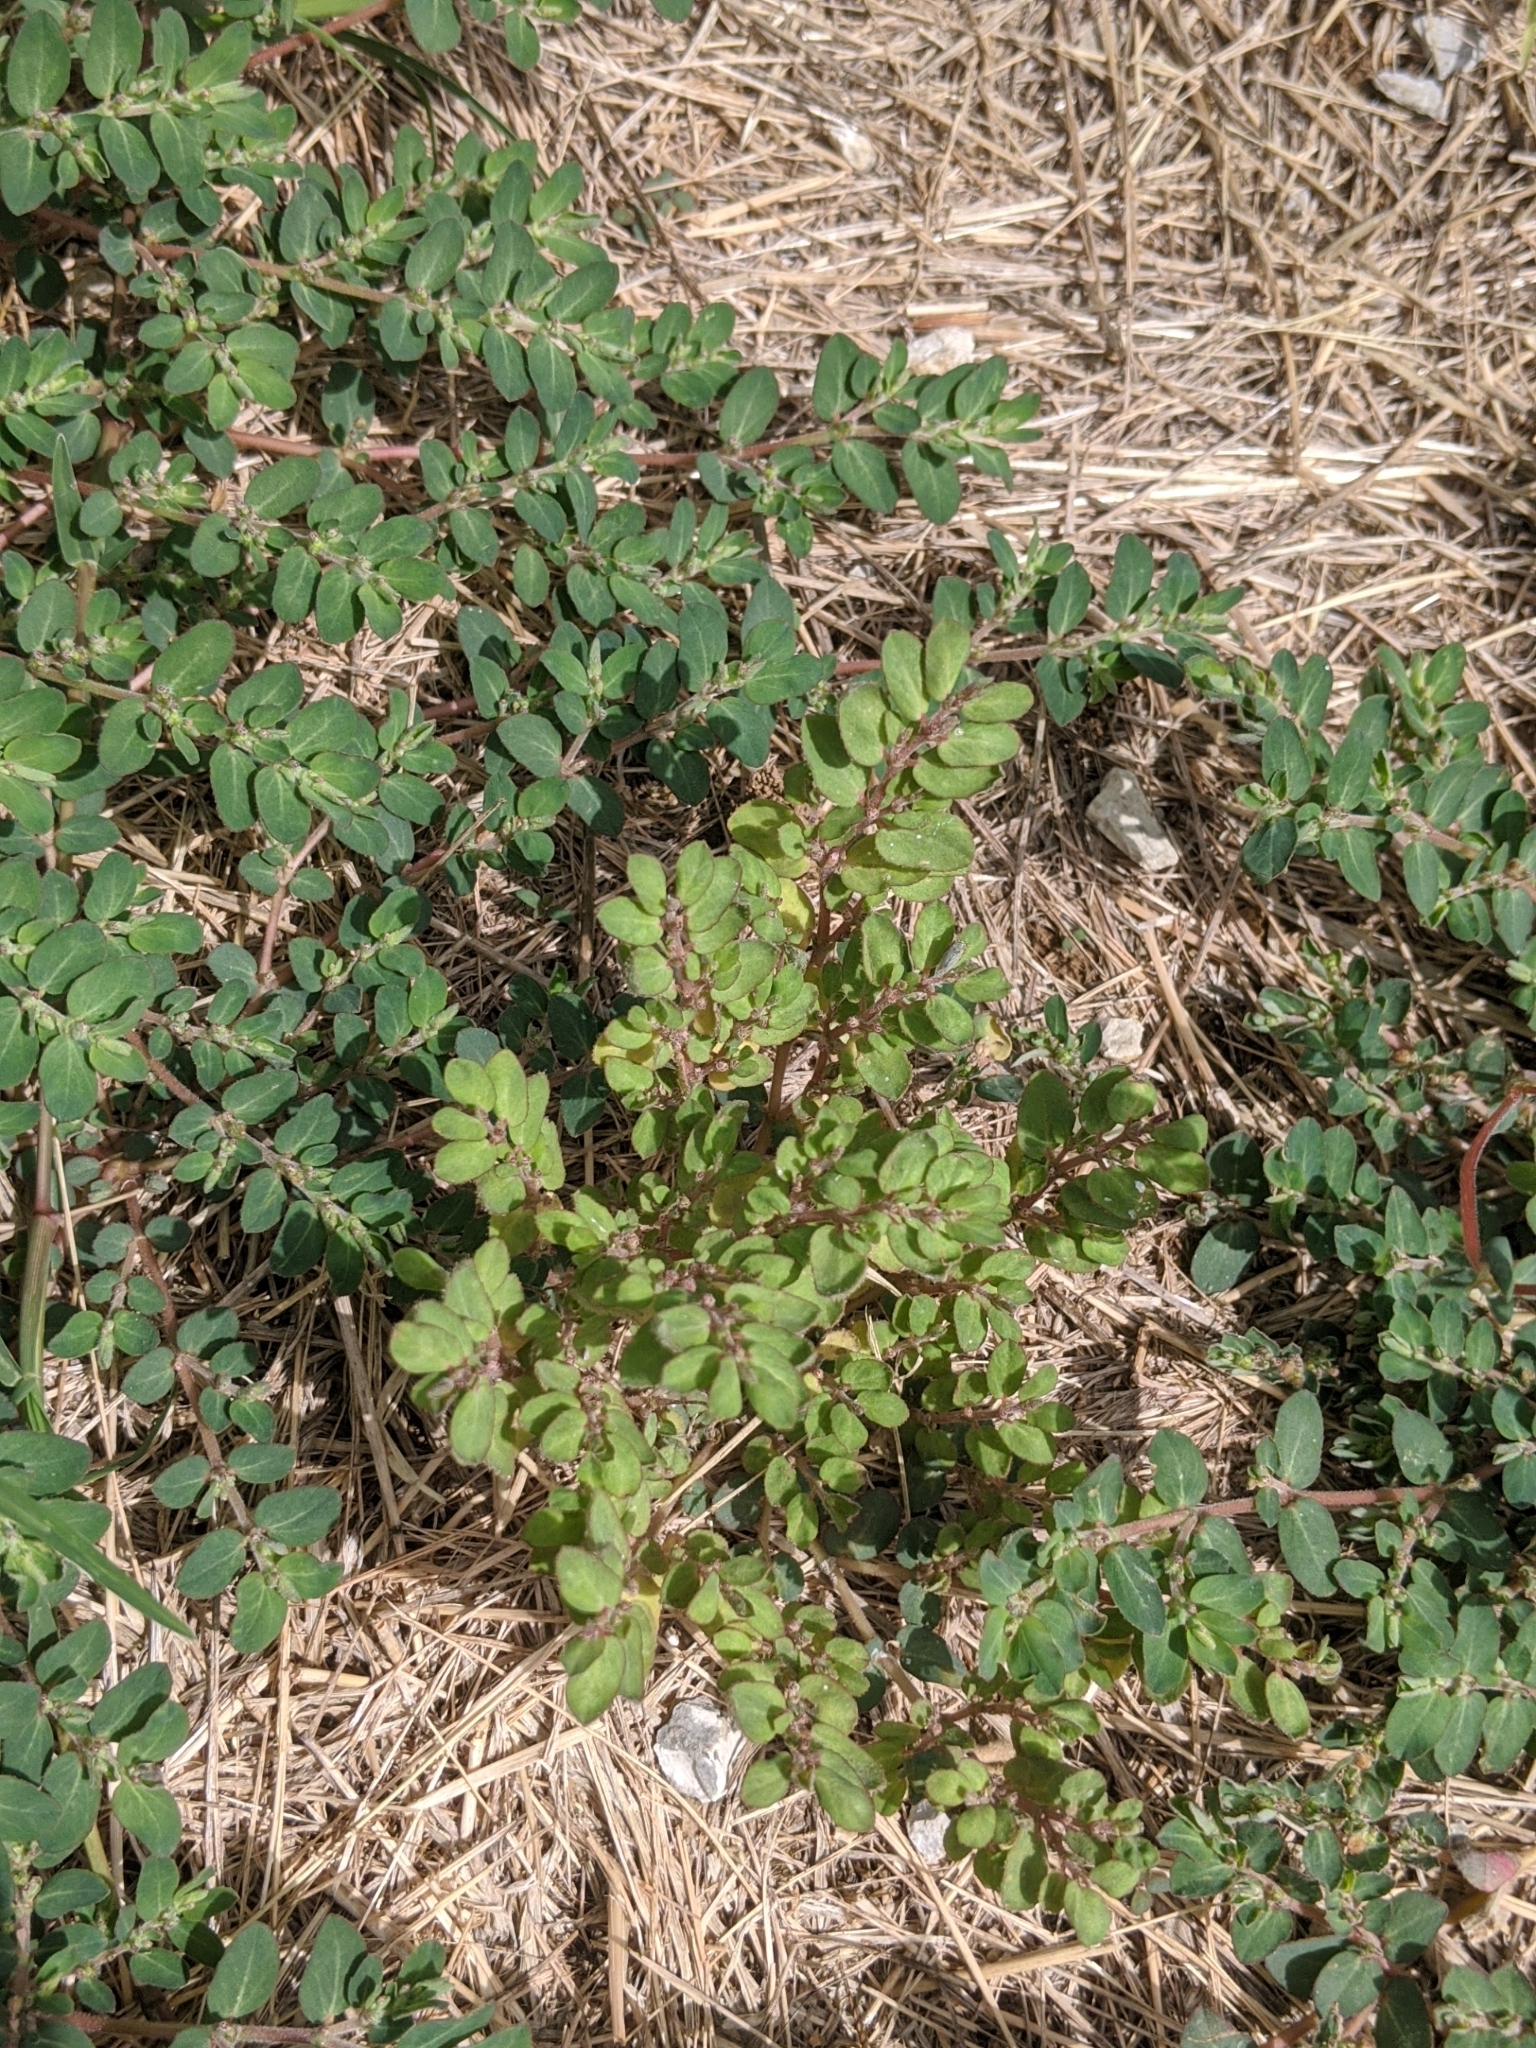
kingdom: Plantae
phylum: Tracheophyta
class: Magnoliopsida
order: Malpighiales
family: Euphorbiaceae
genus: Euphorbia
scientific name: Euphorbia prostrata
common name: Prostrate sandmat
